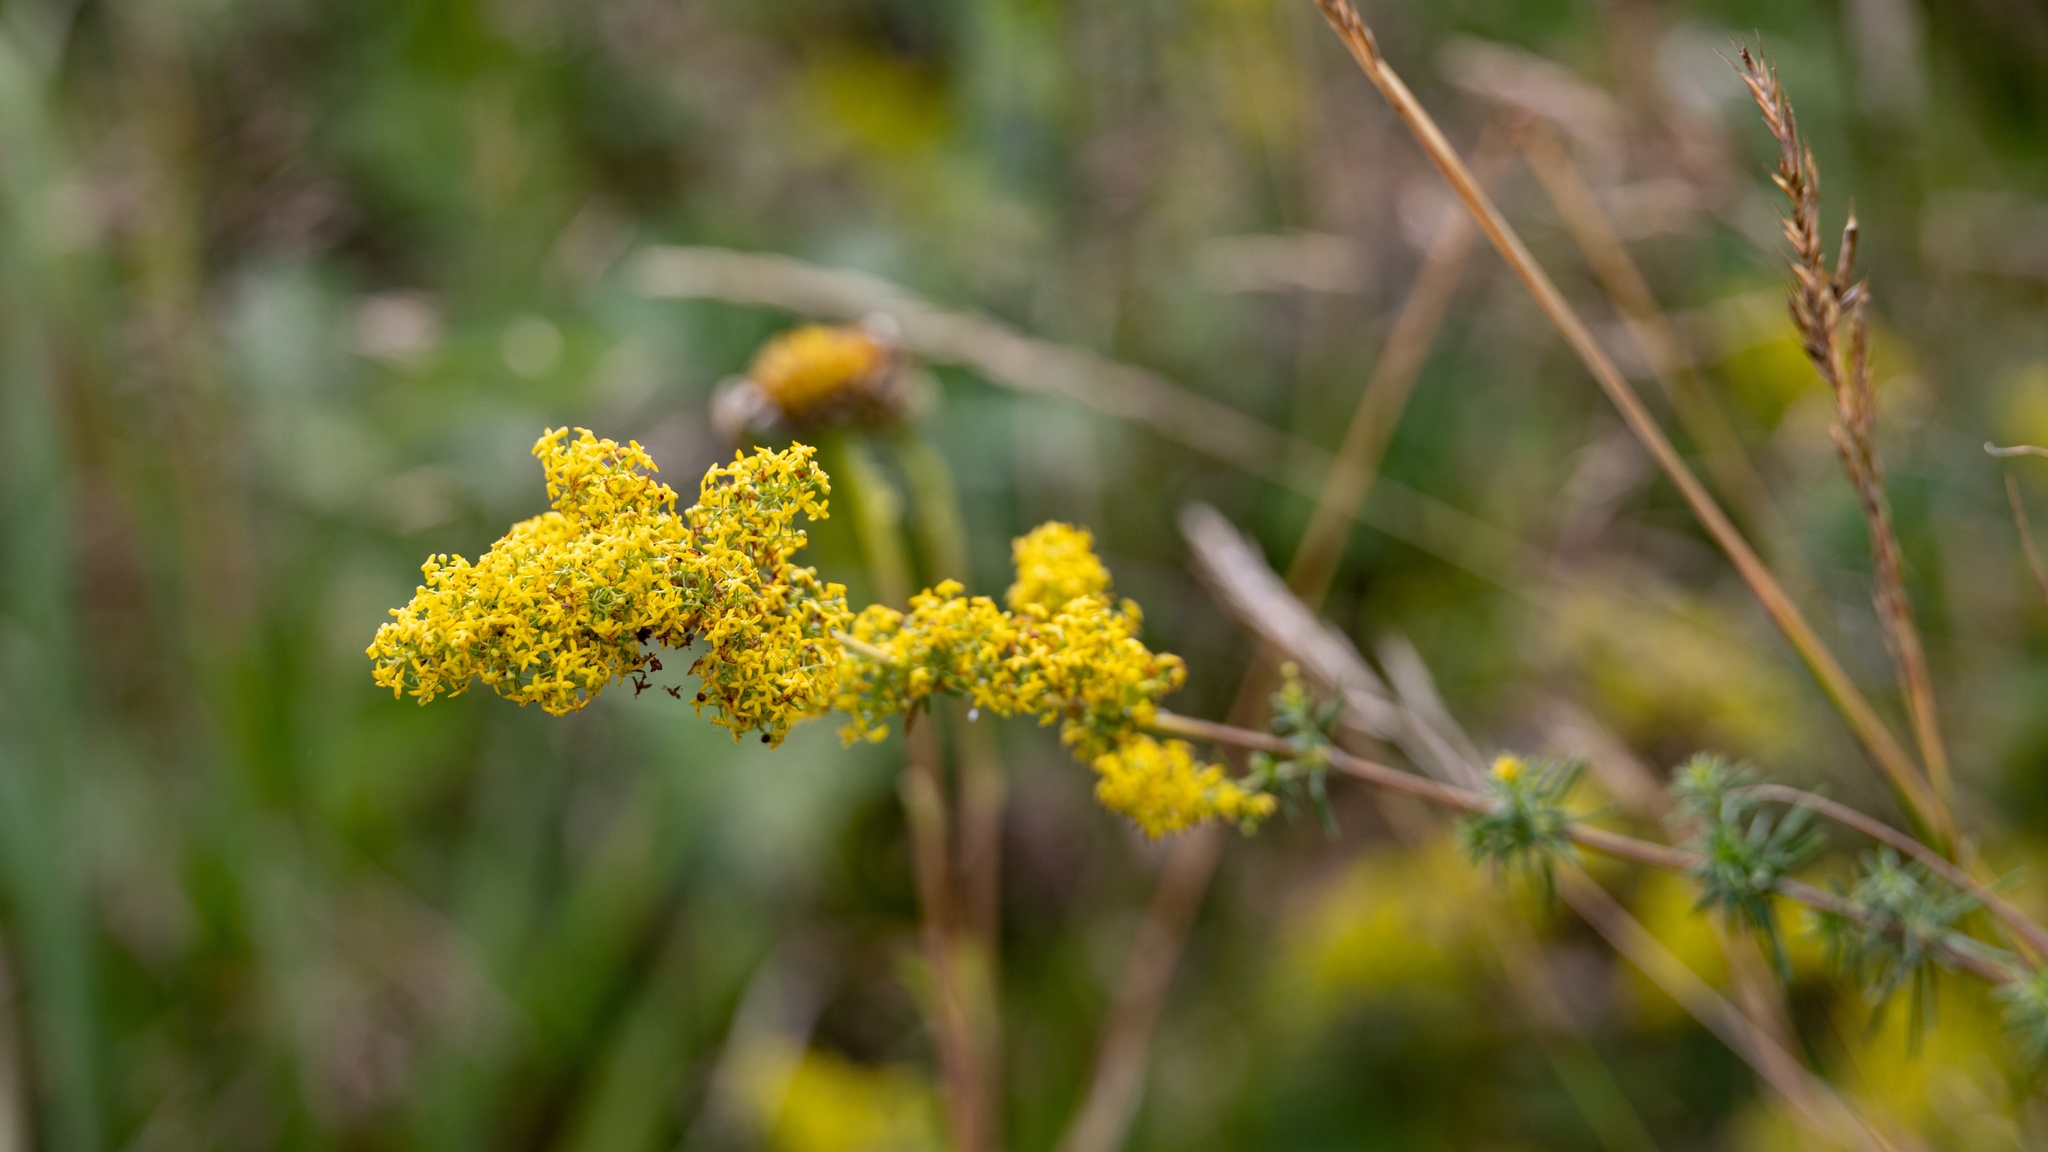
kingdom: Plantae
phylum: Tracheophyta
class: Magnoliopsida
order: Gentianales
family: Rubiaceae
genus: Galium
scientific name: Galium verum
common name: Lady's bedstraw
